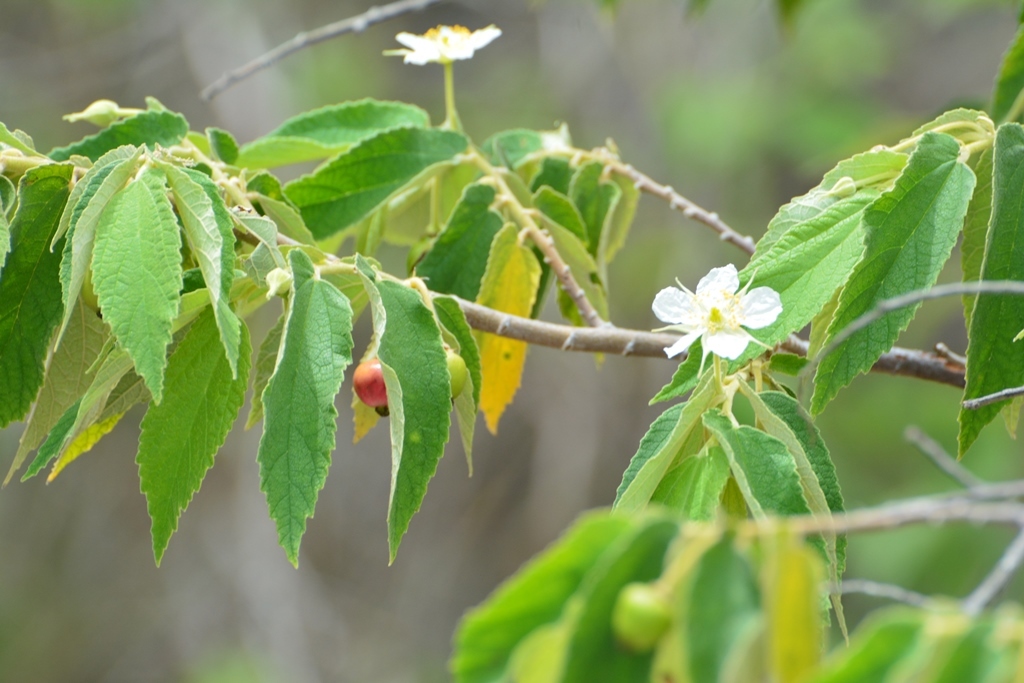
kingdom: Plantae
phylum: Tracheophyta
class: Magnoliopsida
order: Malvales
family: Muntingiaceae
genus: Muntingia
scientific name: Muntingia calabura
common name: Strawberrytree
